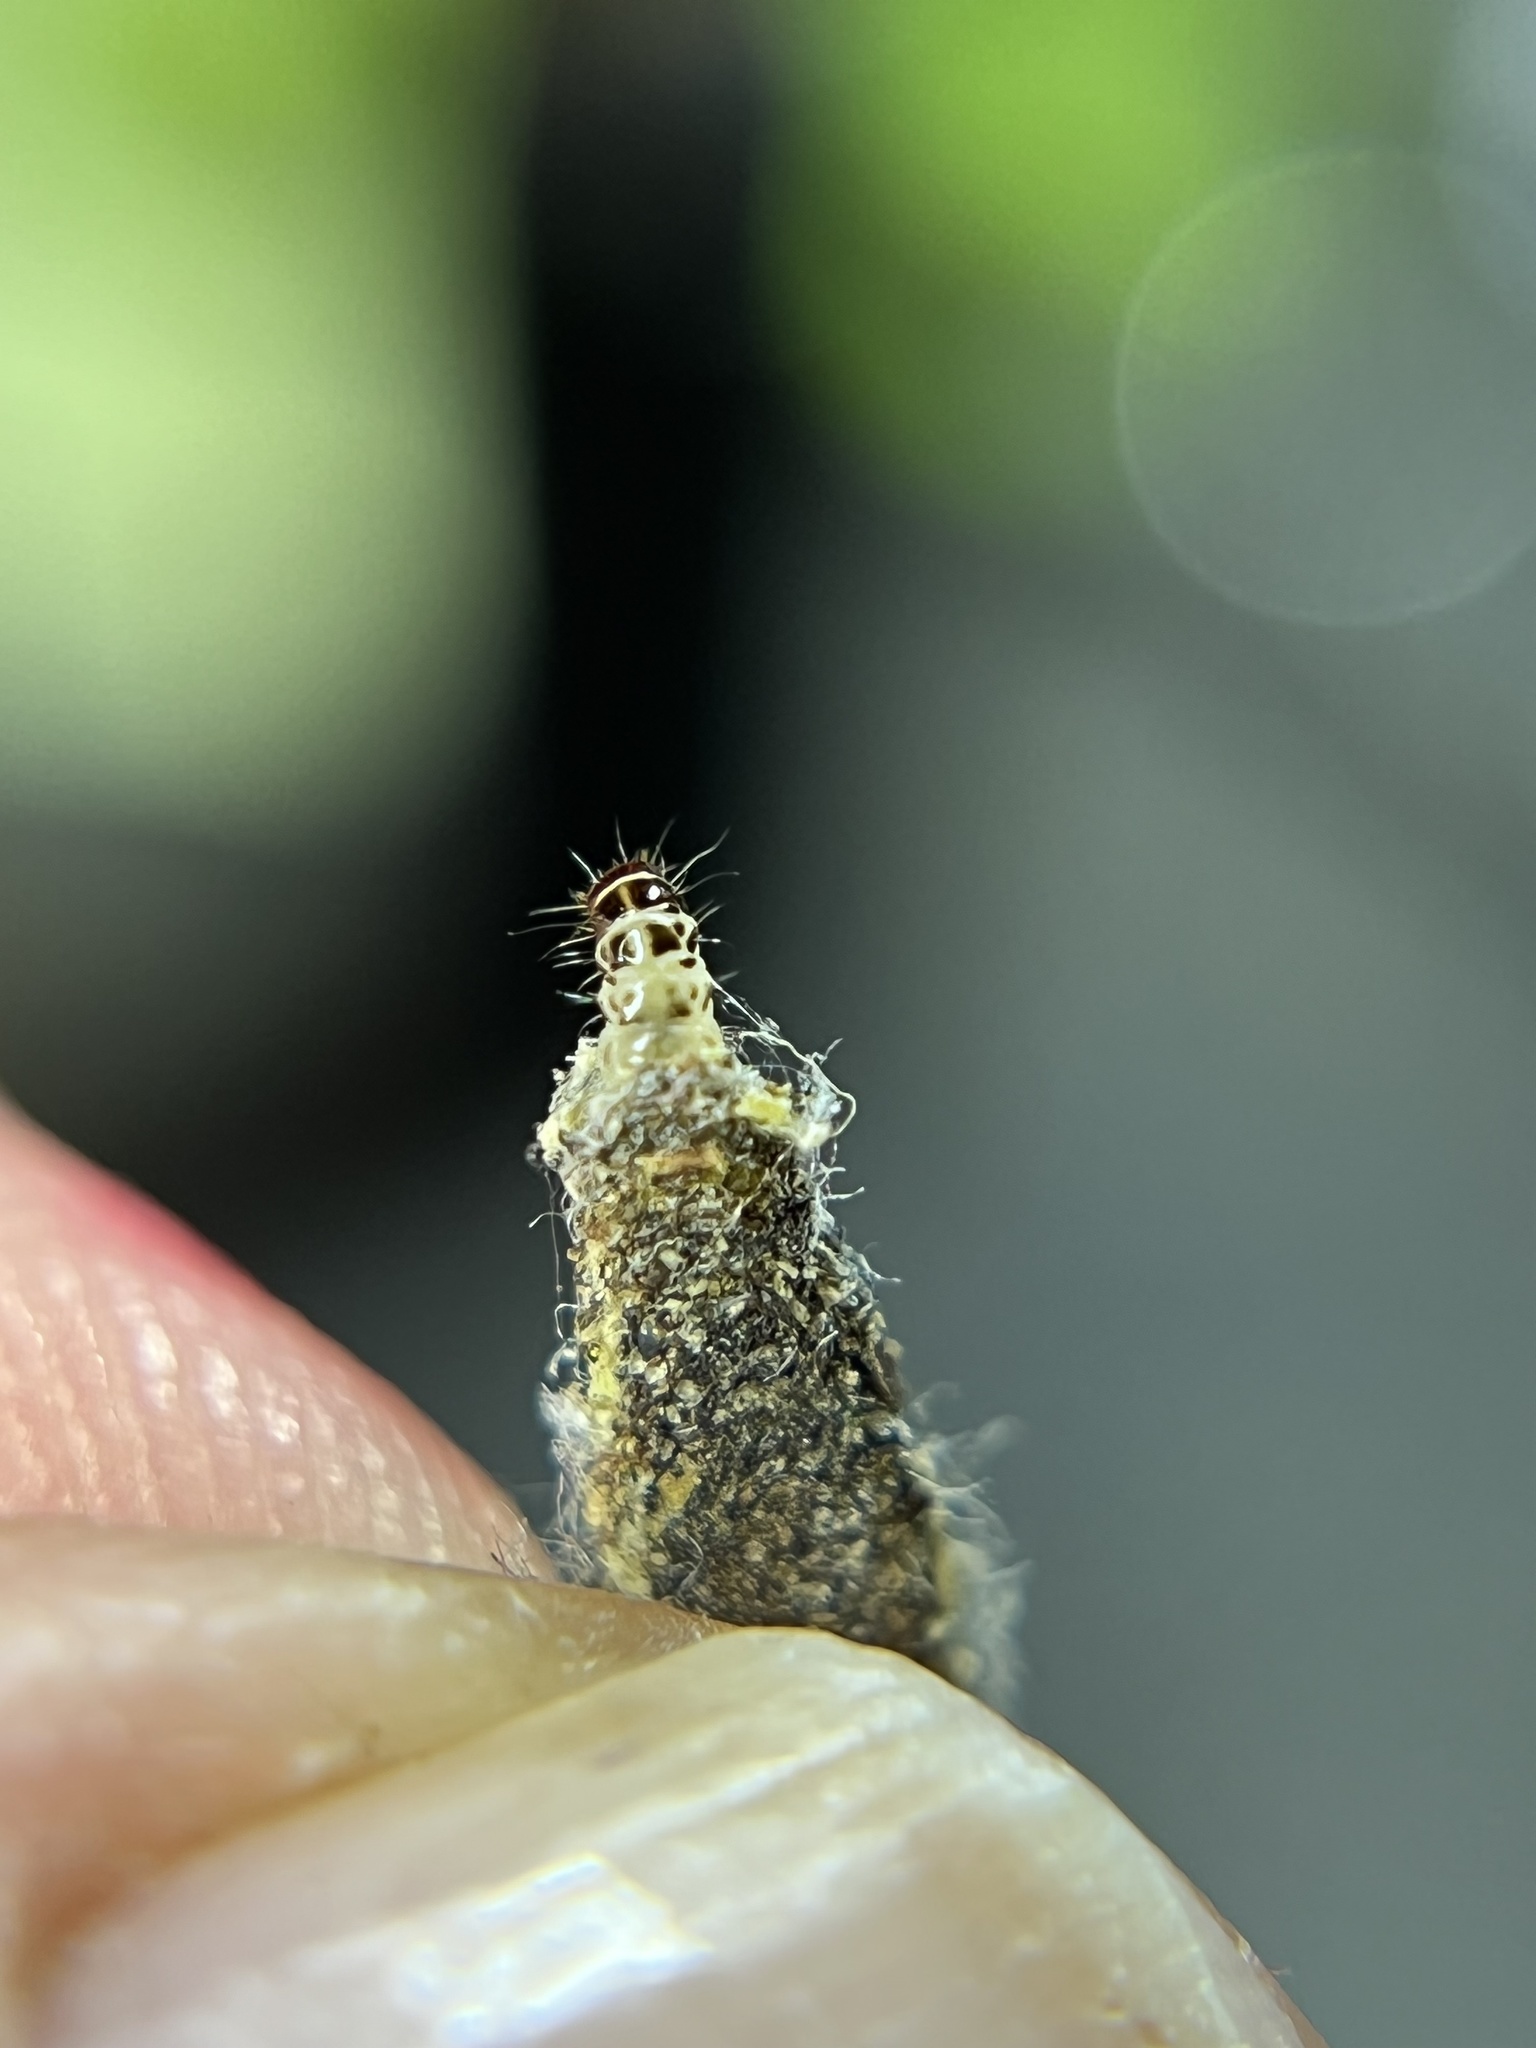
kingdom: Animalia
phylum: Arthropoda
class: Insecta
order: Lepidoptera
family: Tineidae
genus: Phereoeca
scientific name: Phereoeca uterella
